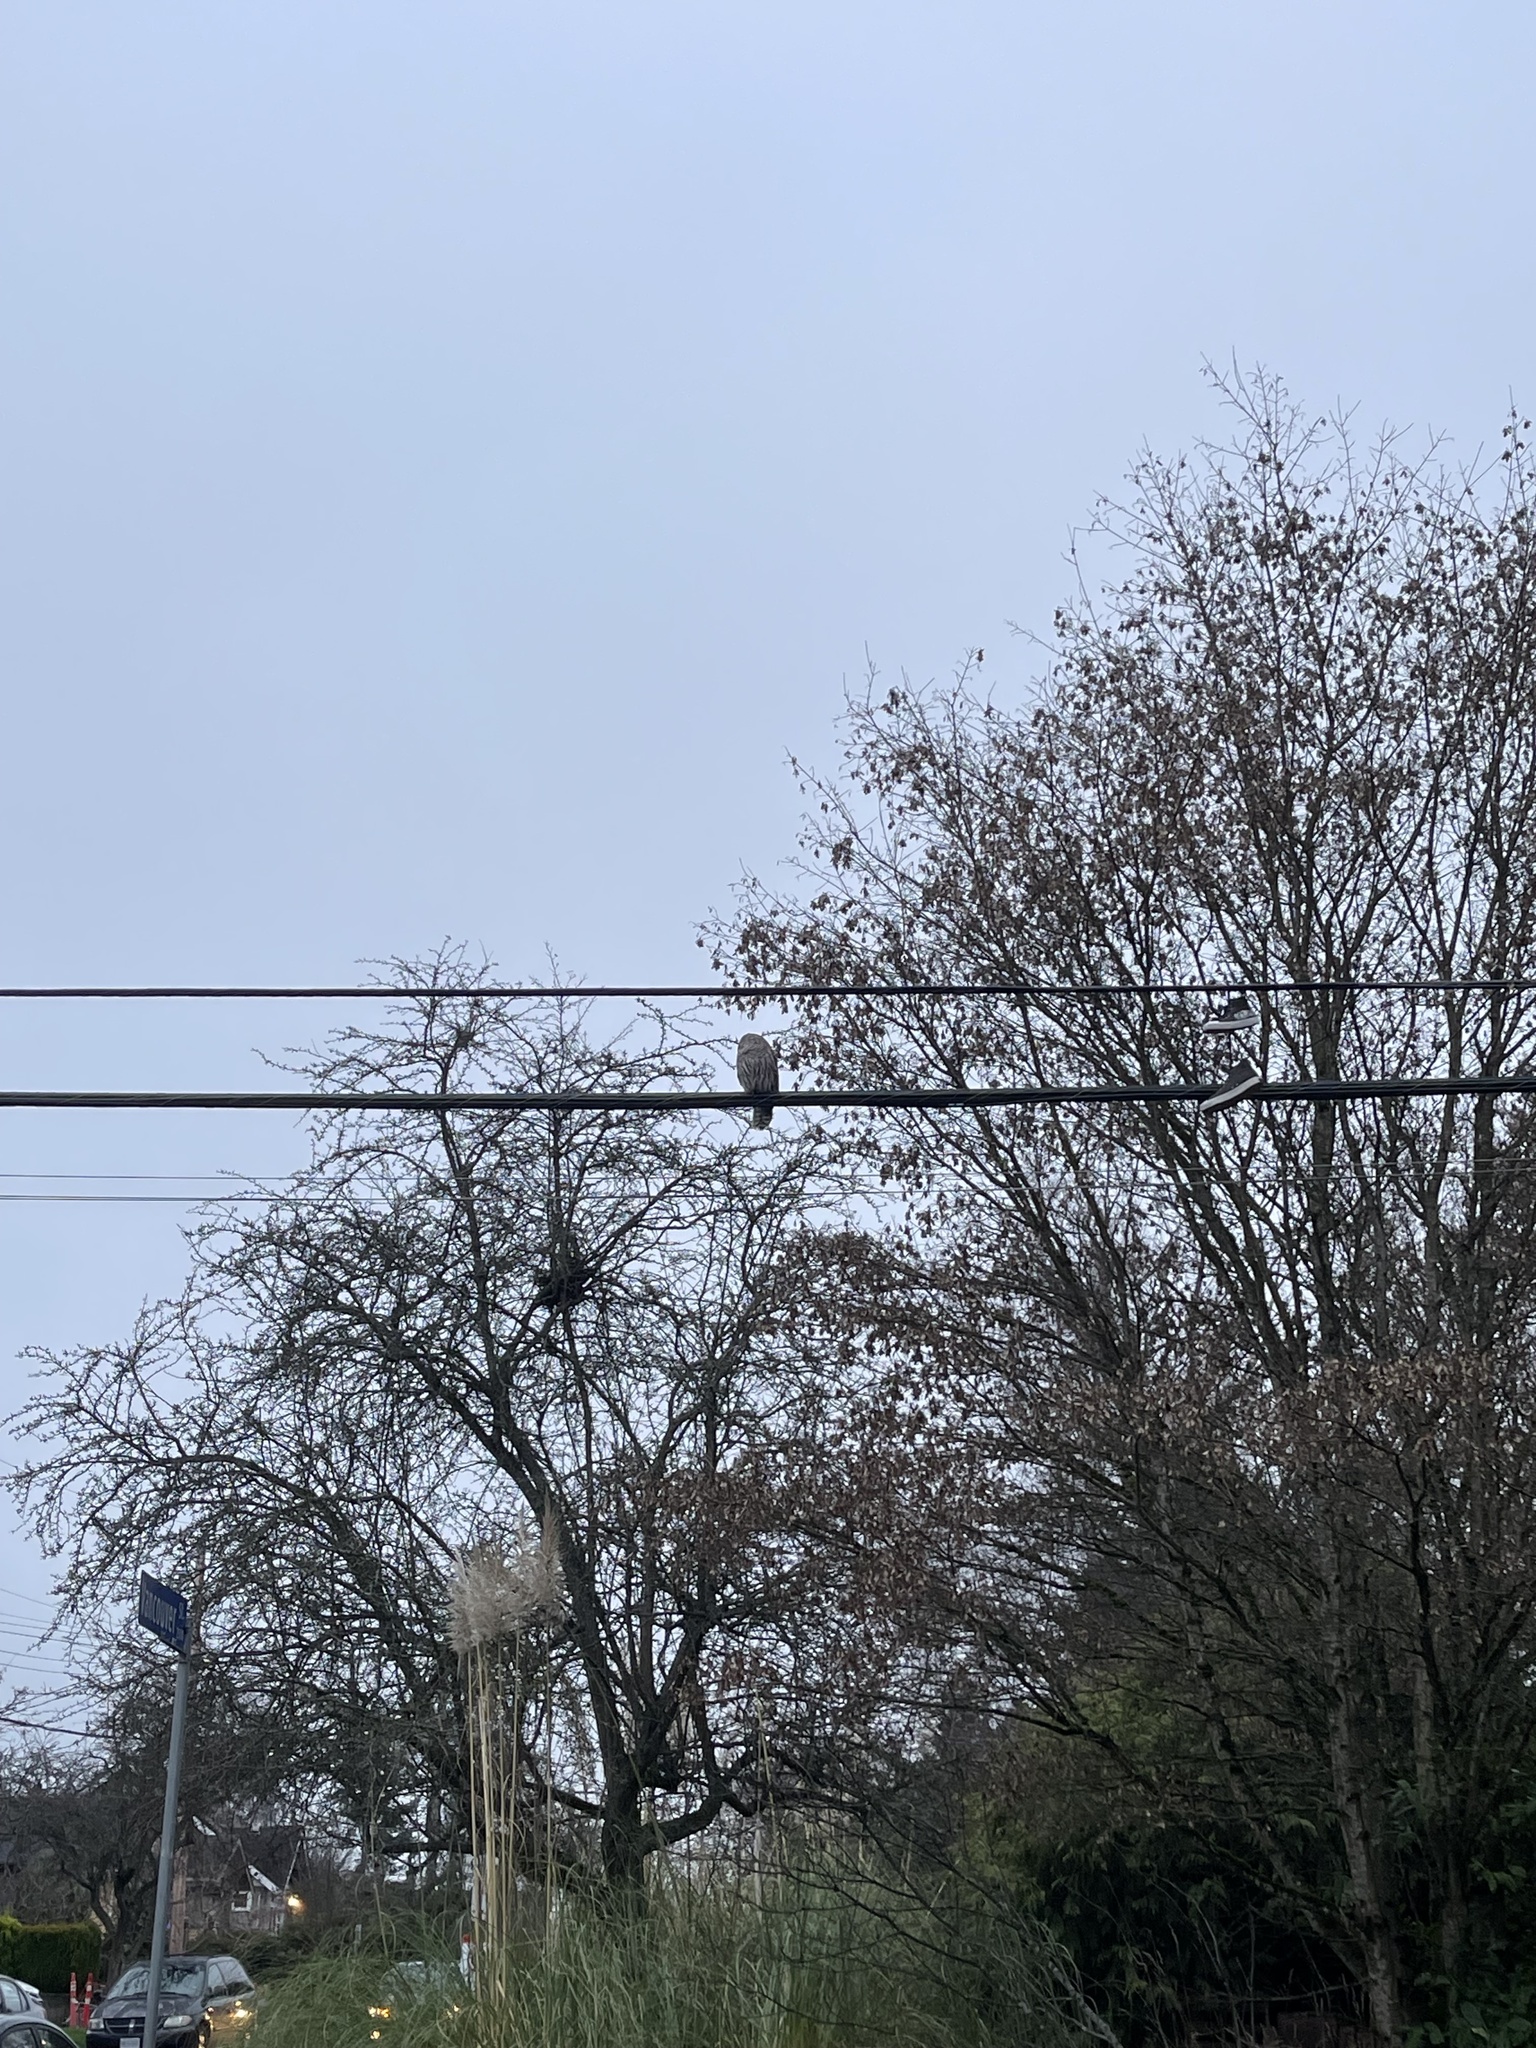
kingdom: Animalia
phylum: Chordata
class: Aves
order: Strigiformes
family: Strigidae
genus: Strix
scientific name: Strix varia
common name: Barred owl
